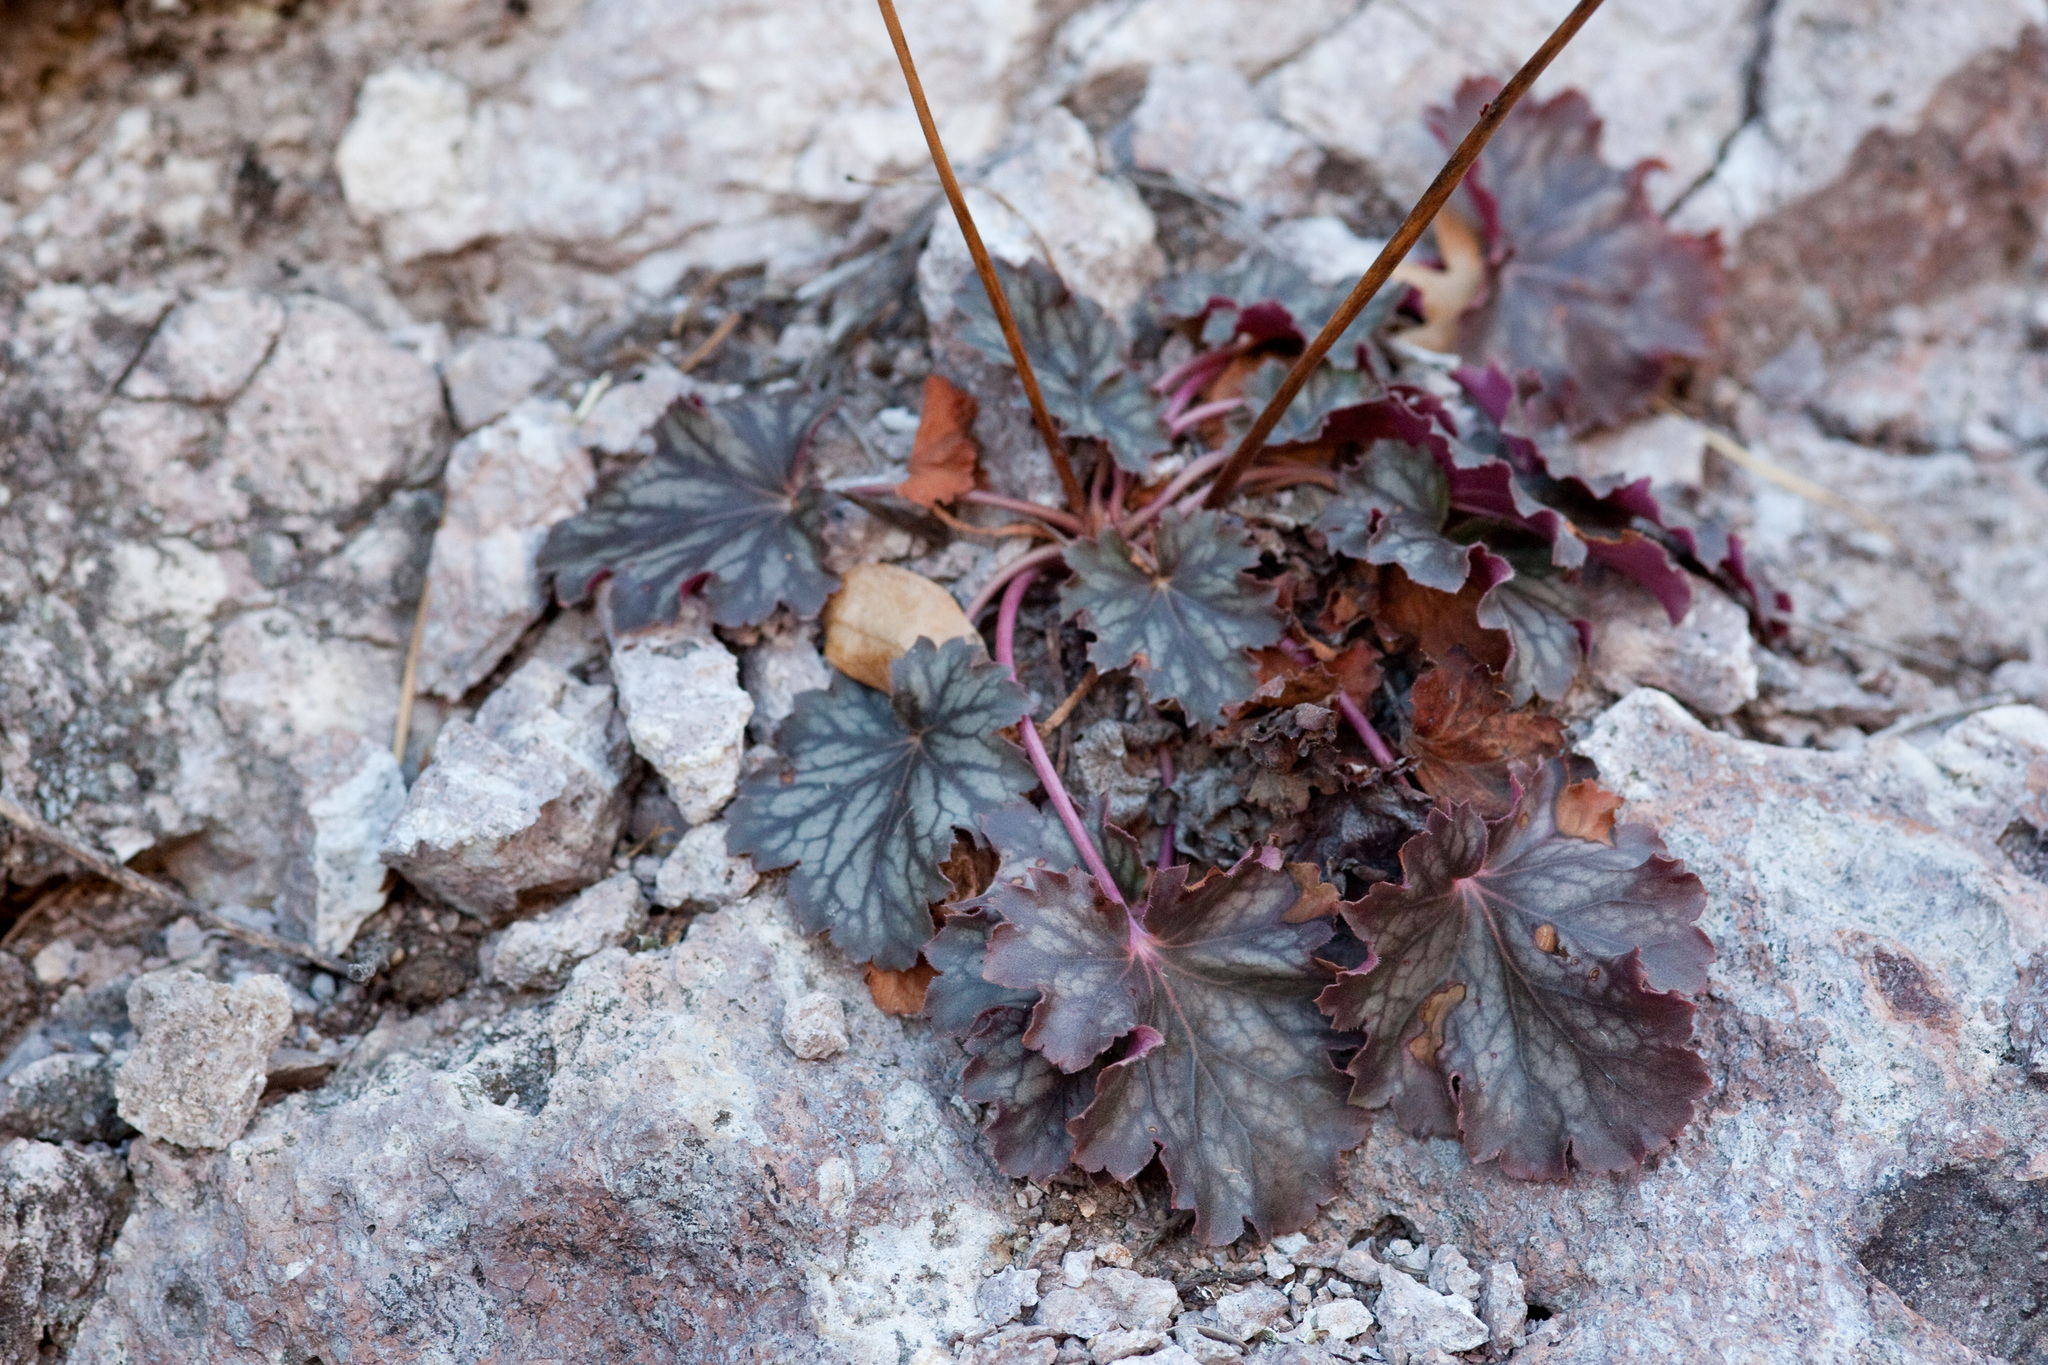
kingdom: Plantae
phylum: Tracheophyta
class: Magnoliopsida
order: Saxifragales
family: Saxifragaceae
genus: Heuchera
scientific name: Heuchera soltisii
